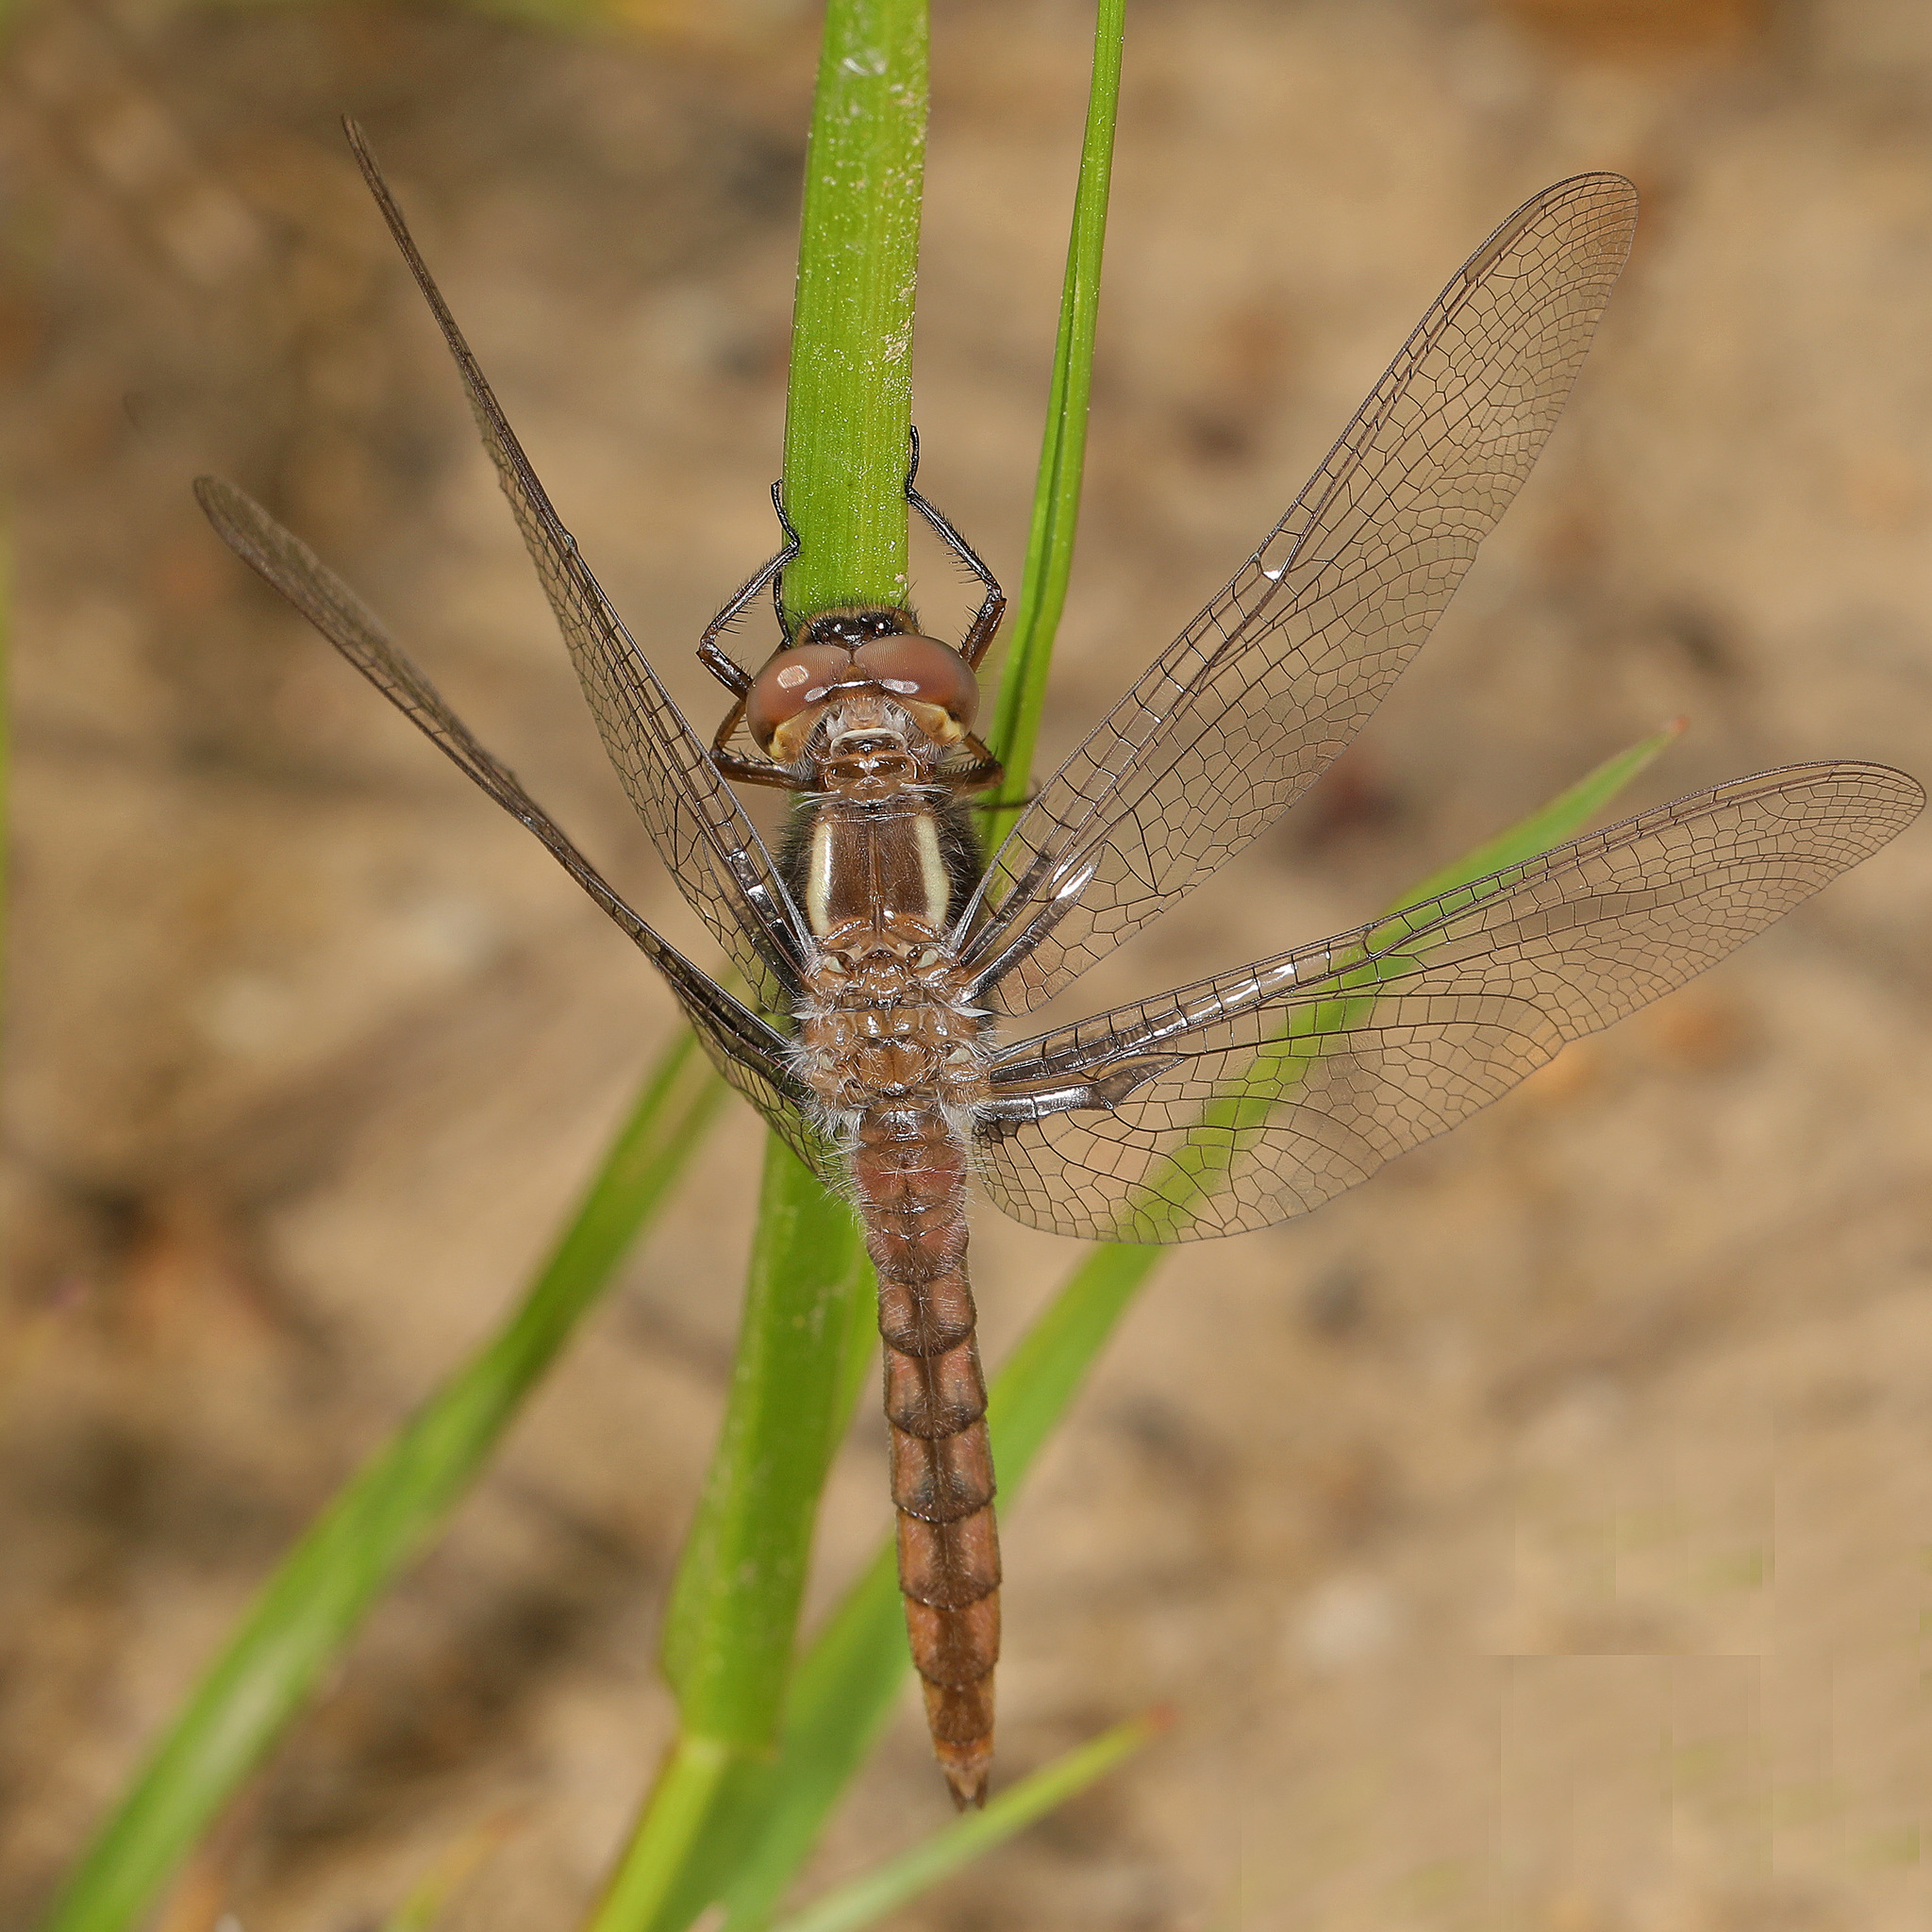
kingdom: Animalia
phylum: Arthropoda
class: Insecta
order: Odonata
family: Libellulidae
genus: Ladona
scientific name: Ladona deplanata
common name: Blue corporal
